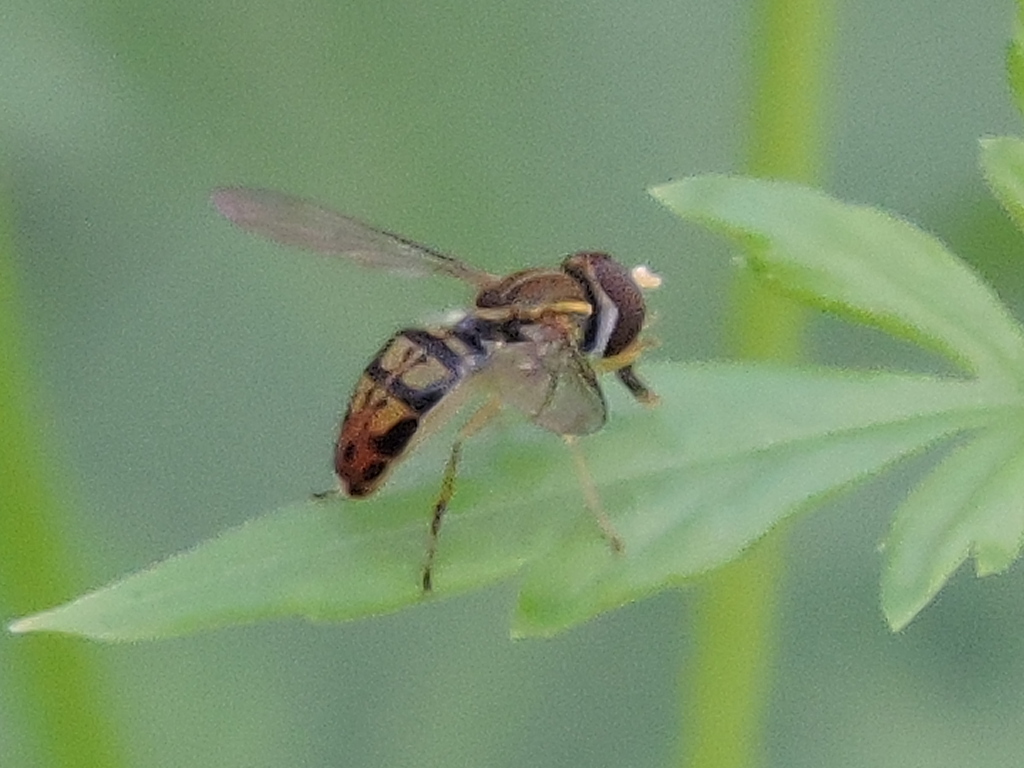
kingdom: Animalia
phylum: Arthropoda
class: Insecta
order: Diptera
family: Syrphidae
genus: Toxomerus
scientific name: Toxomerus marginatus
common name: Syrphid fly
